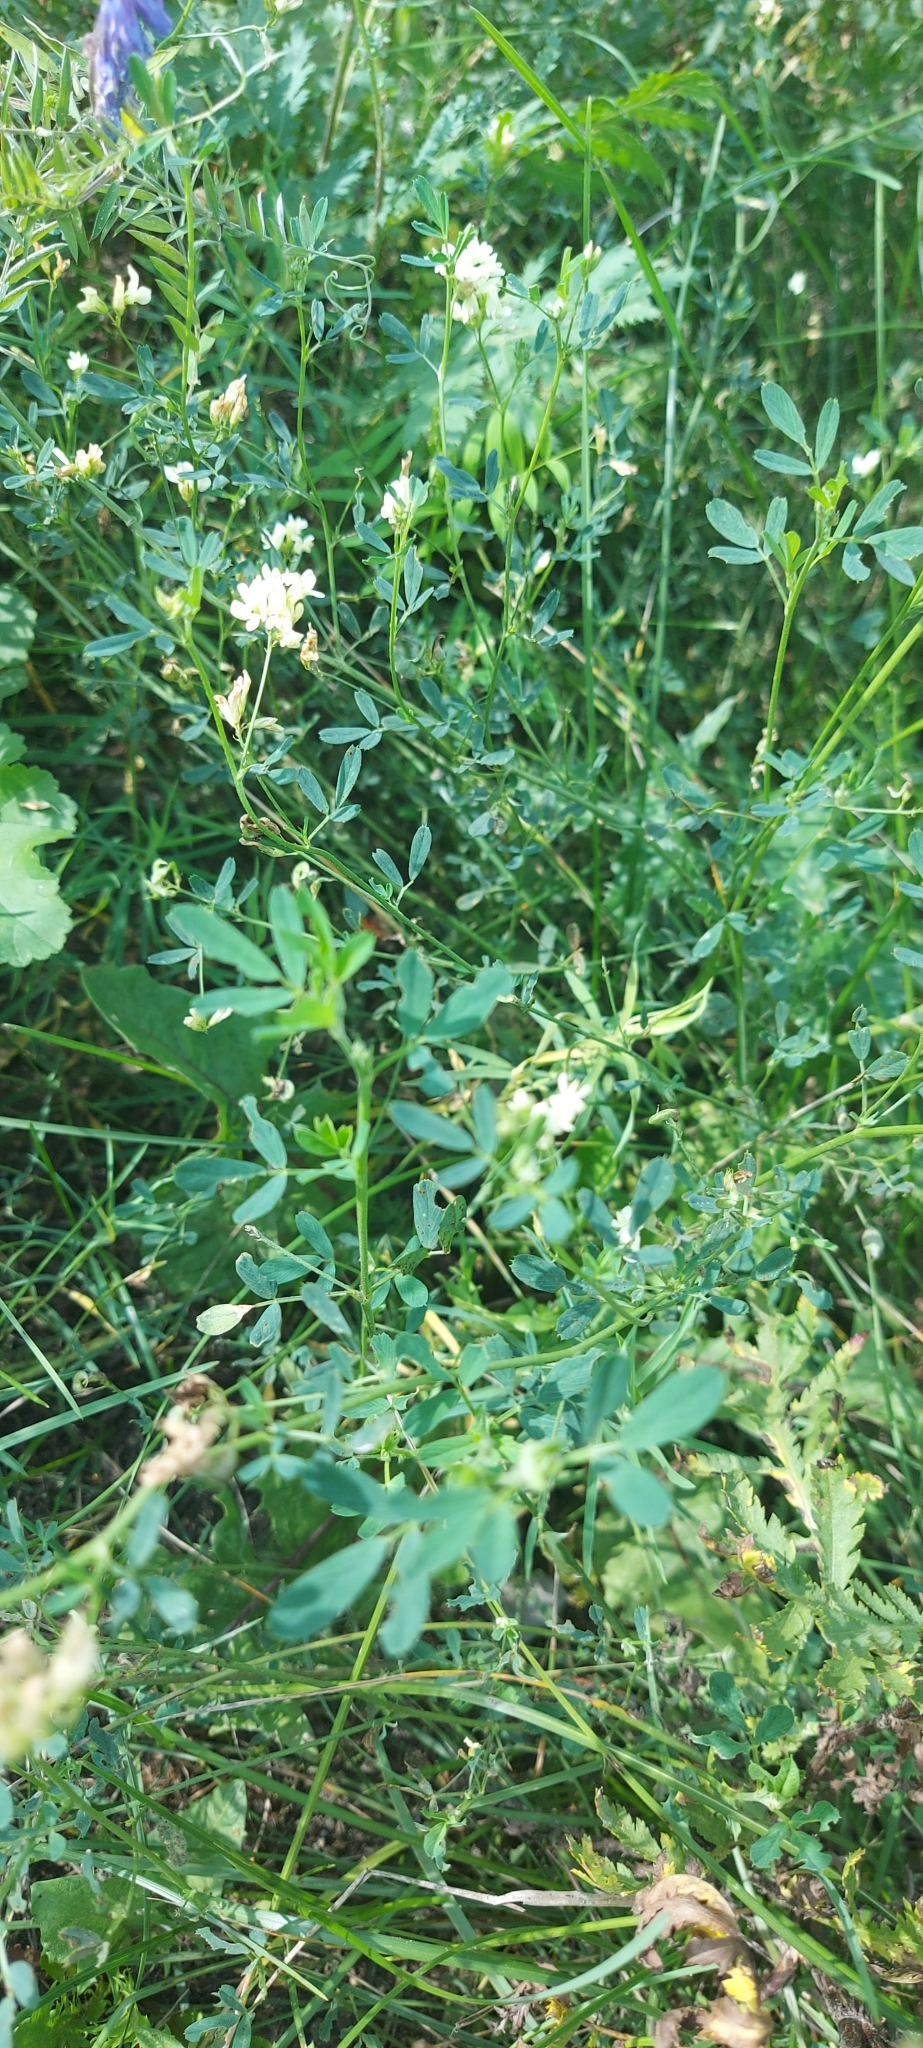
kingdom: Plantae
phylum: Tracheophyta
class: Magnoliopsida
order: Fabales
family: Fabaceae
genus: Medicago
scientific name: Medicago varia
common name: Sand lucerne
